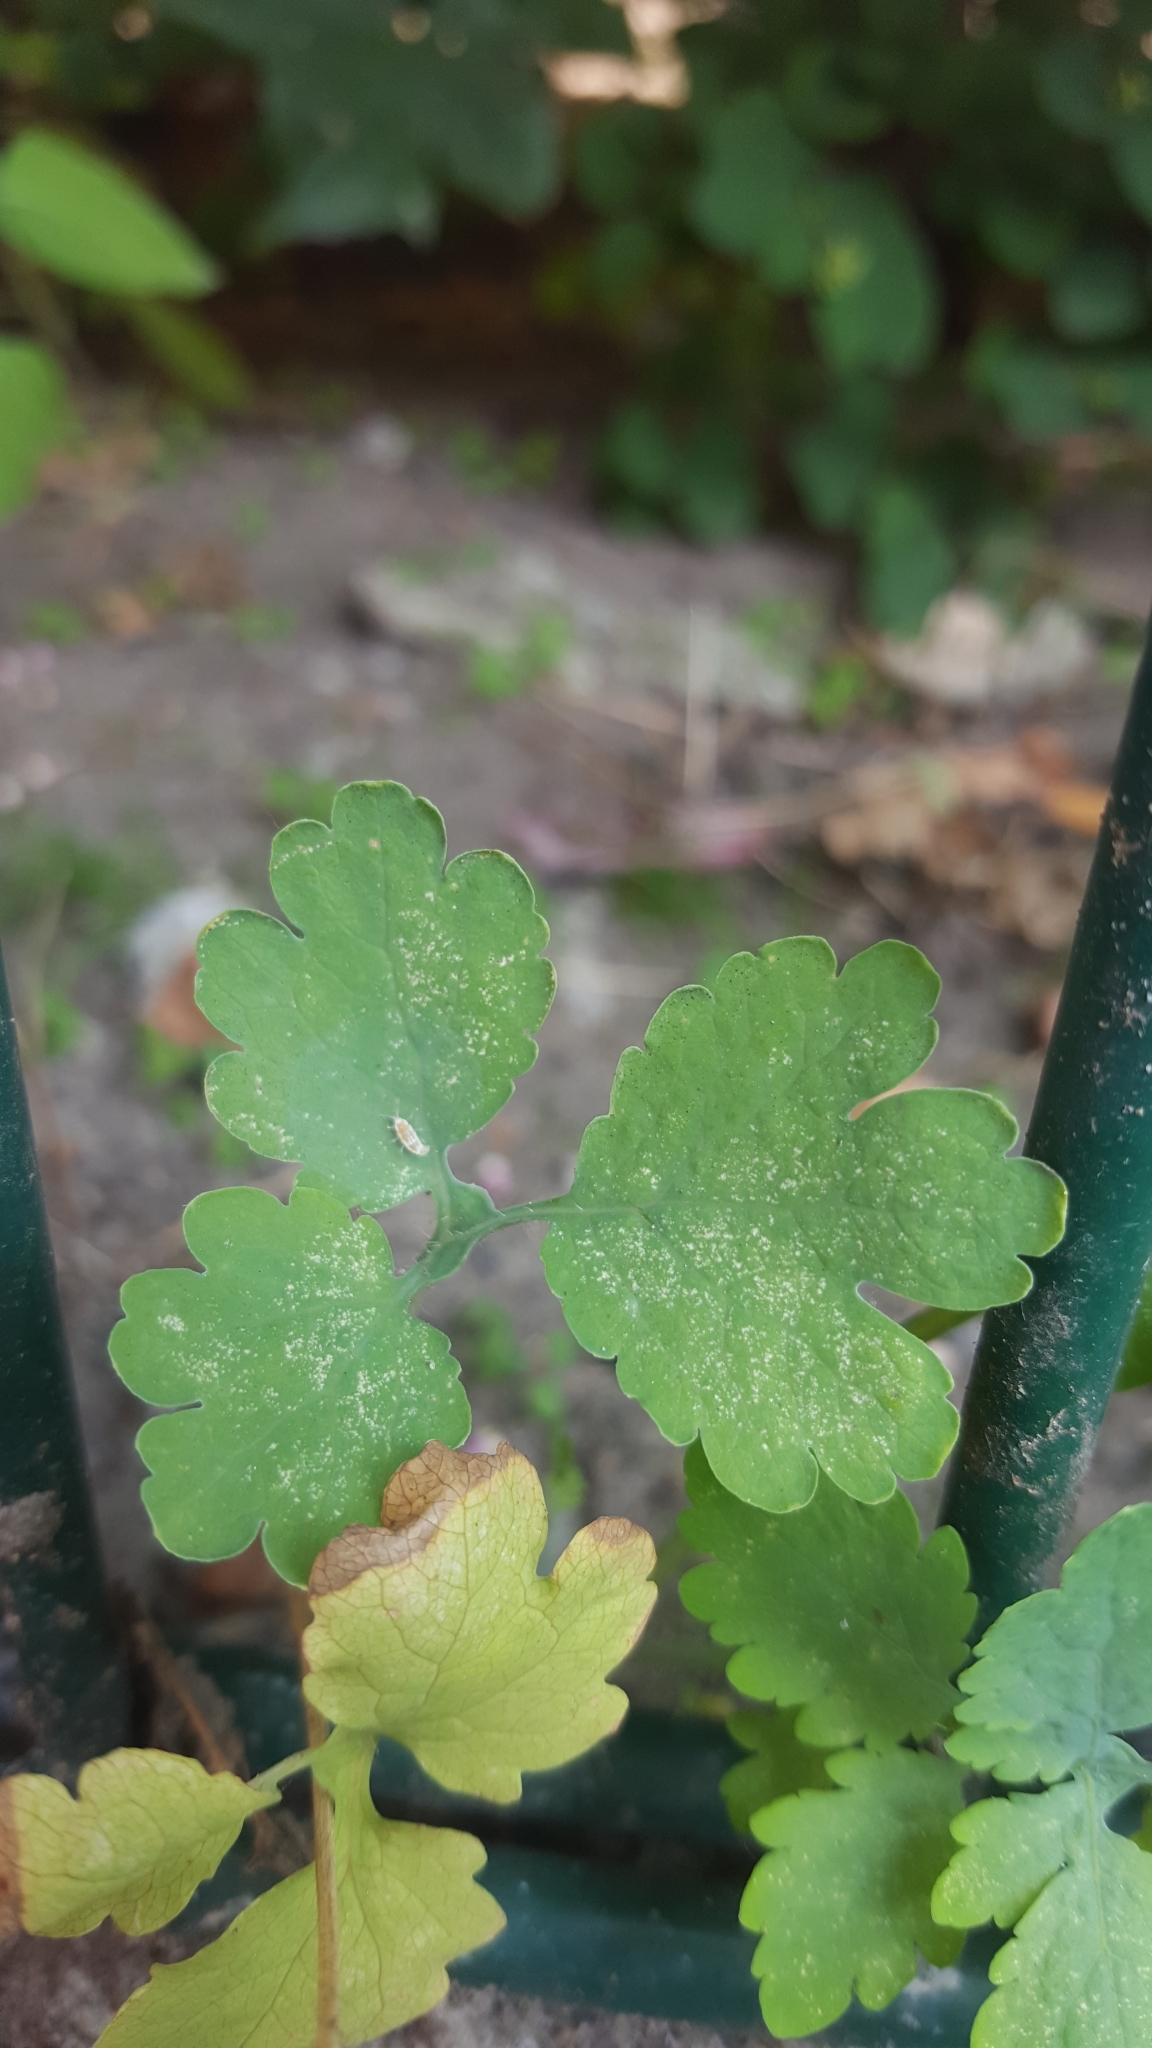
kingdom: Plantae
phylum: Tracheophyta
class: Magnoliopsida
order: Ranunculales
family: Papaveraceae
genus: Chelidonium
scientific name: Chelidonium majus
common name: Greater celandine
